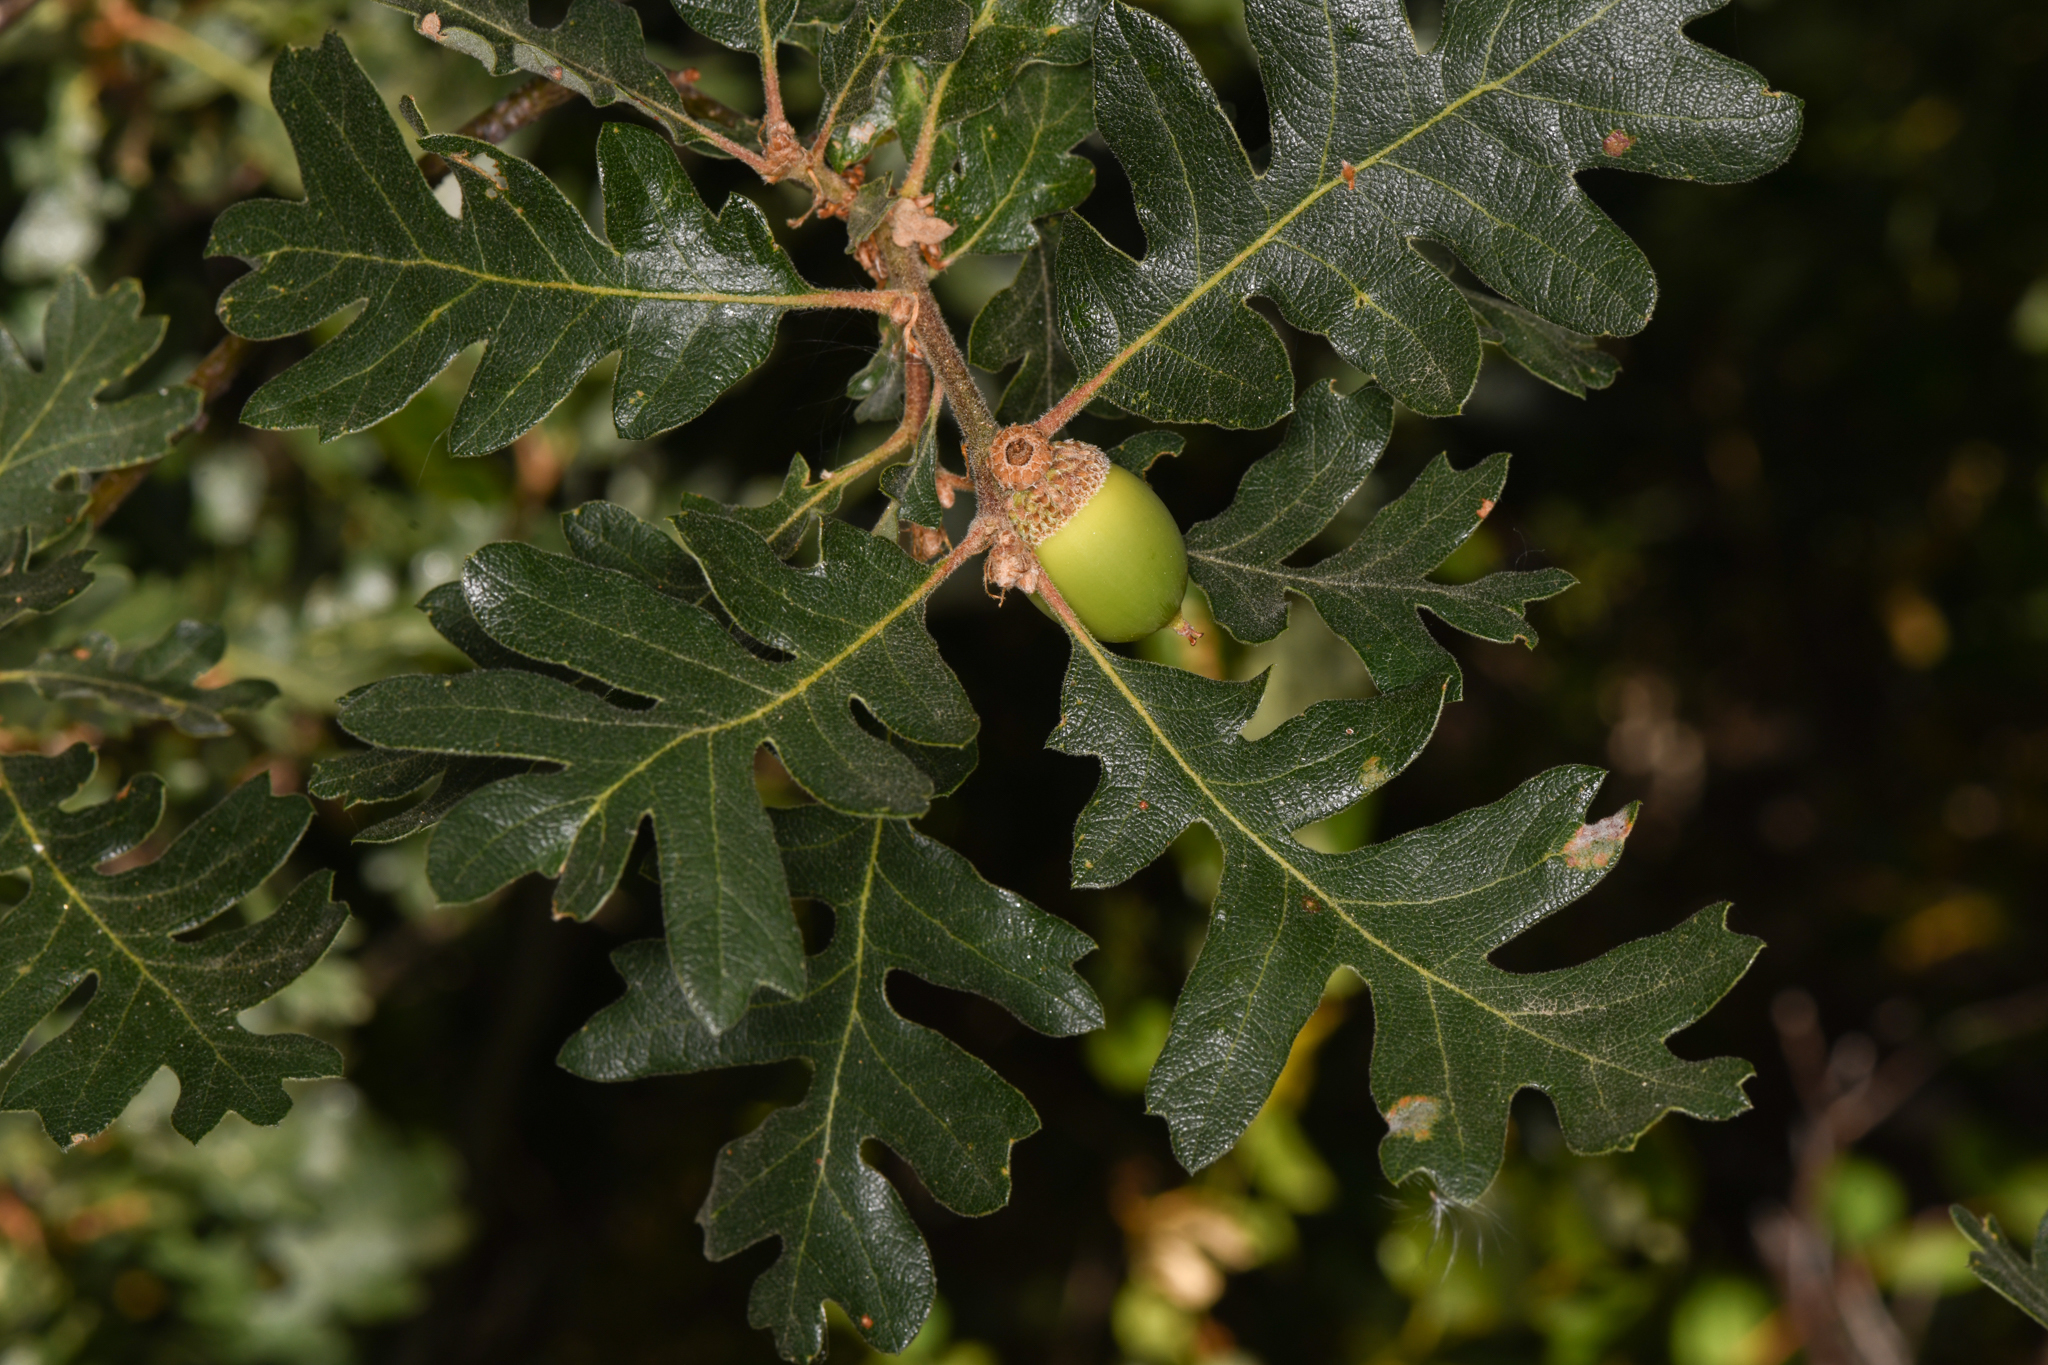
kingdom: Plantae
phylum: Tracheophyta
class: Magnoliopsida
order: Fagales
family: Fagaceae
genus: Quercus
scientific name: Quercus garryana
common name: Garry oak
